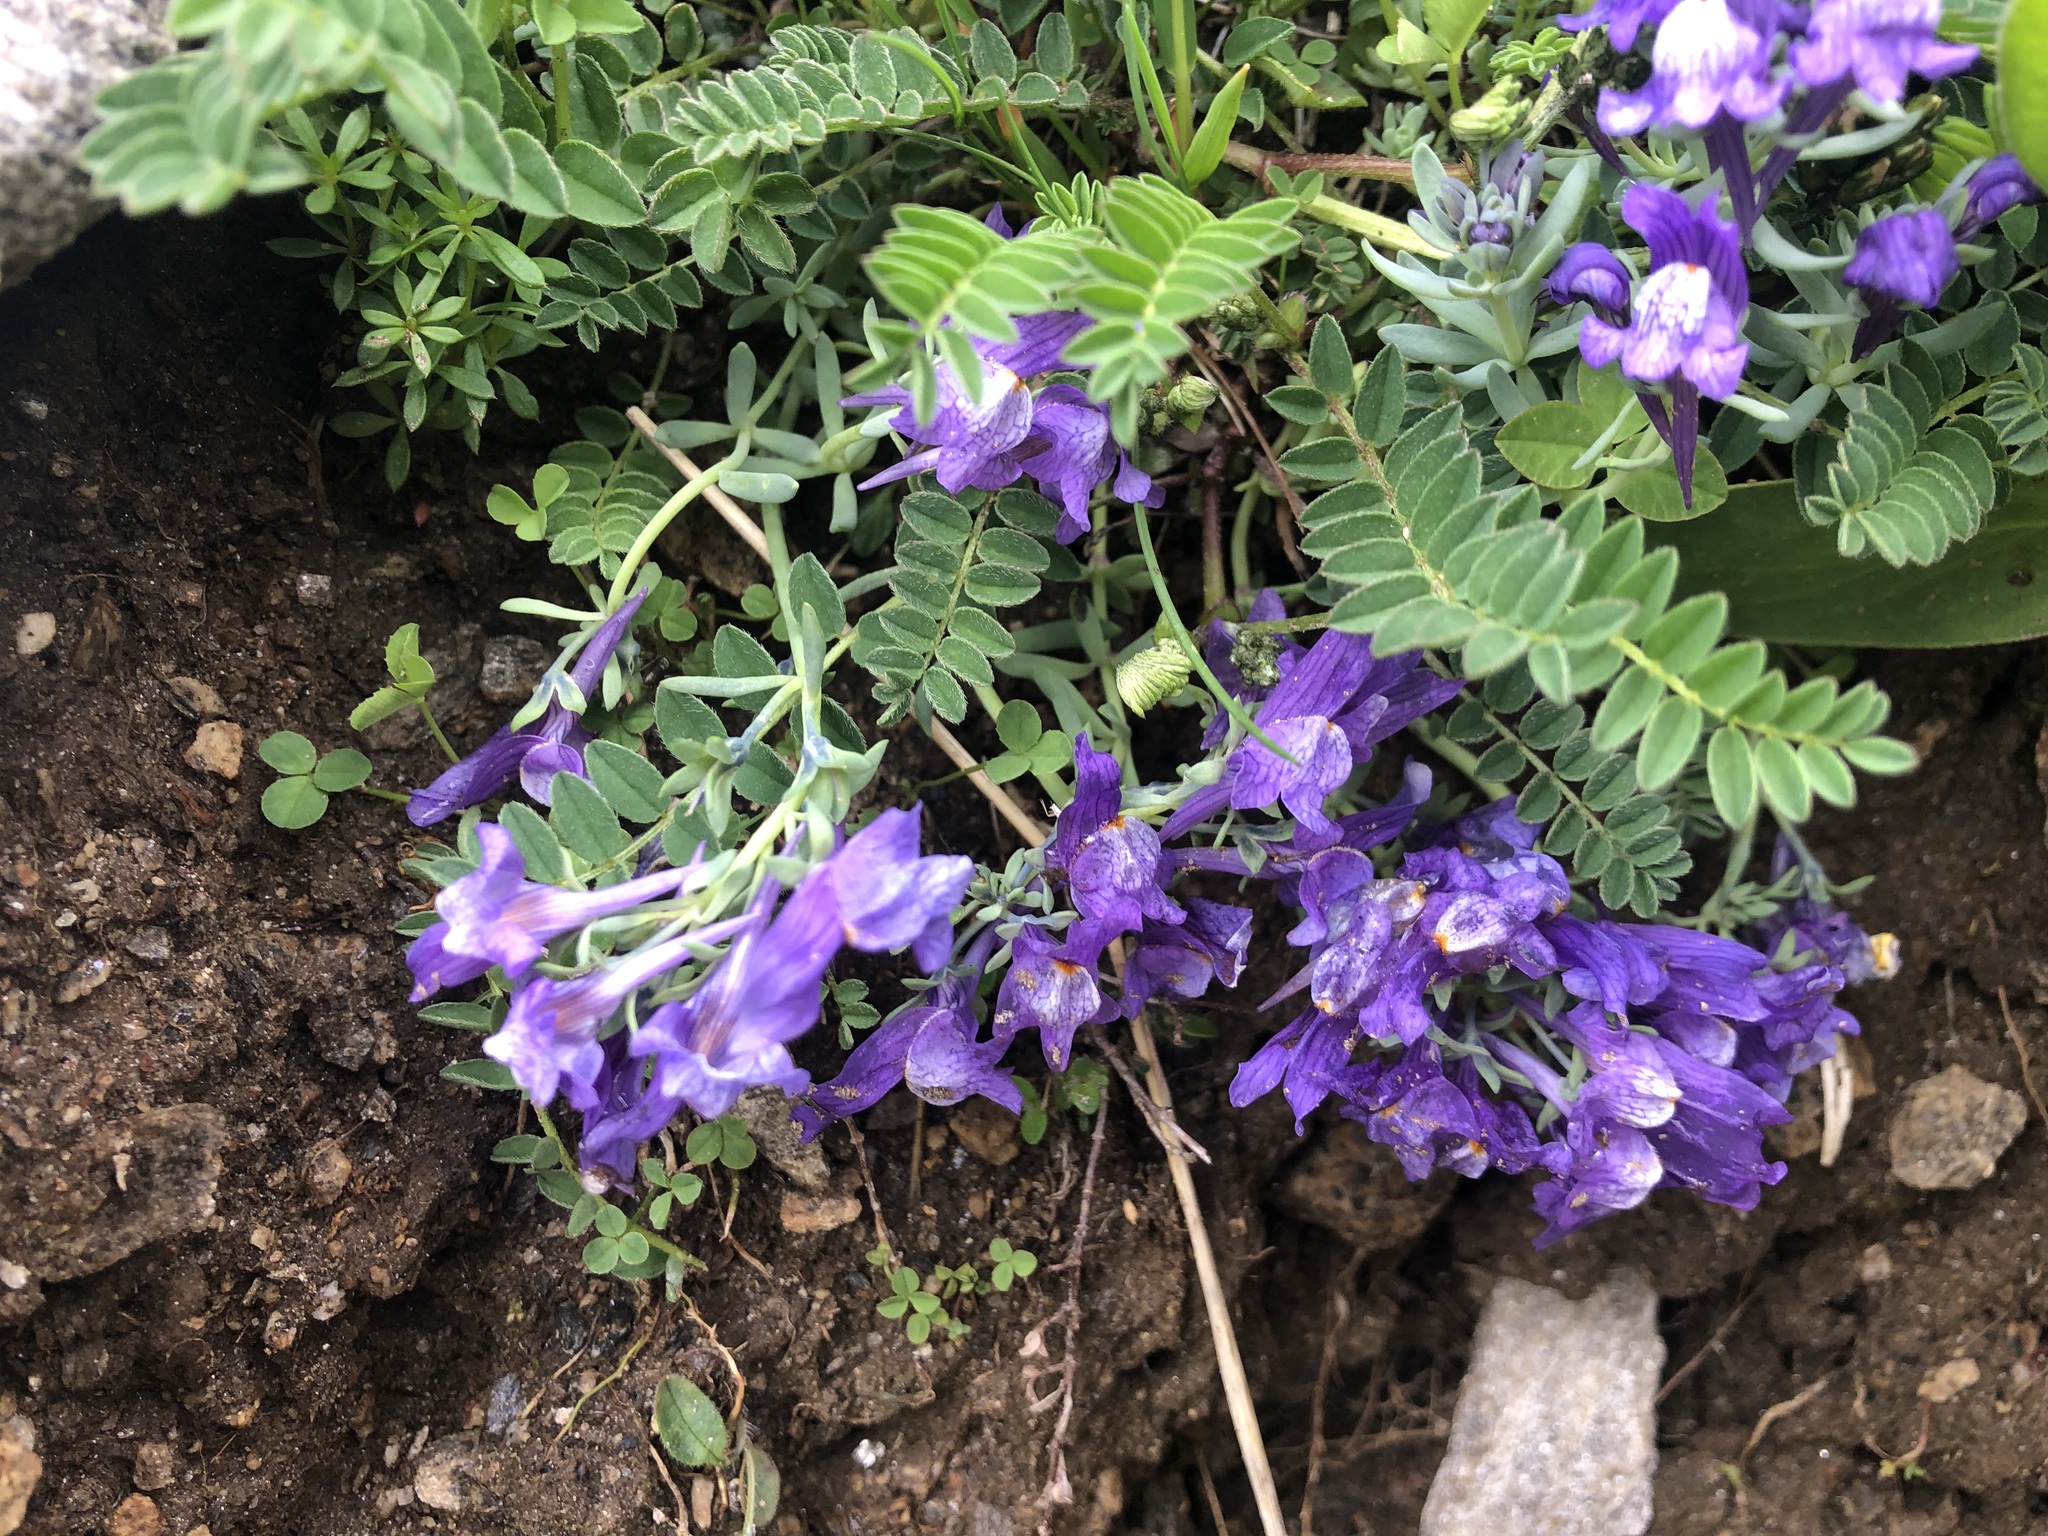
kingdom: Plantae
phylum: Tracheophyta
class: Magnoliopsida
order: Lamiales
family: Plantaginaceae
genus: Linaria
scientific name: Linaria alpina
